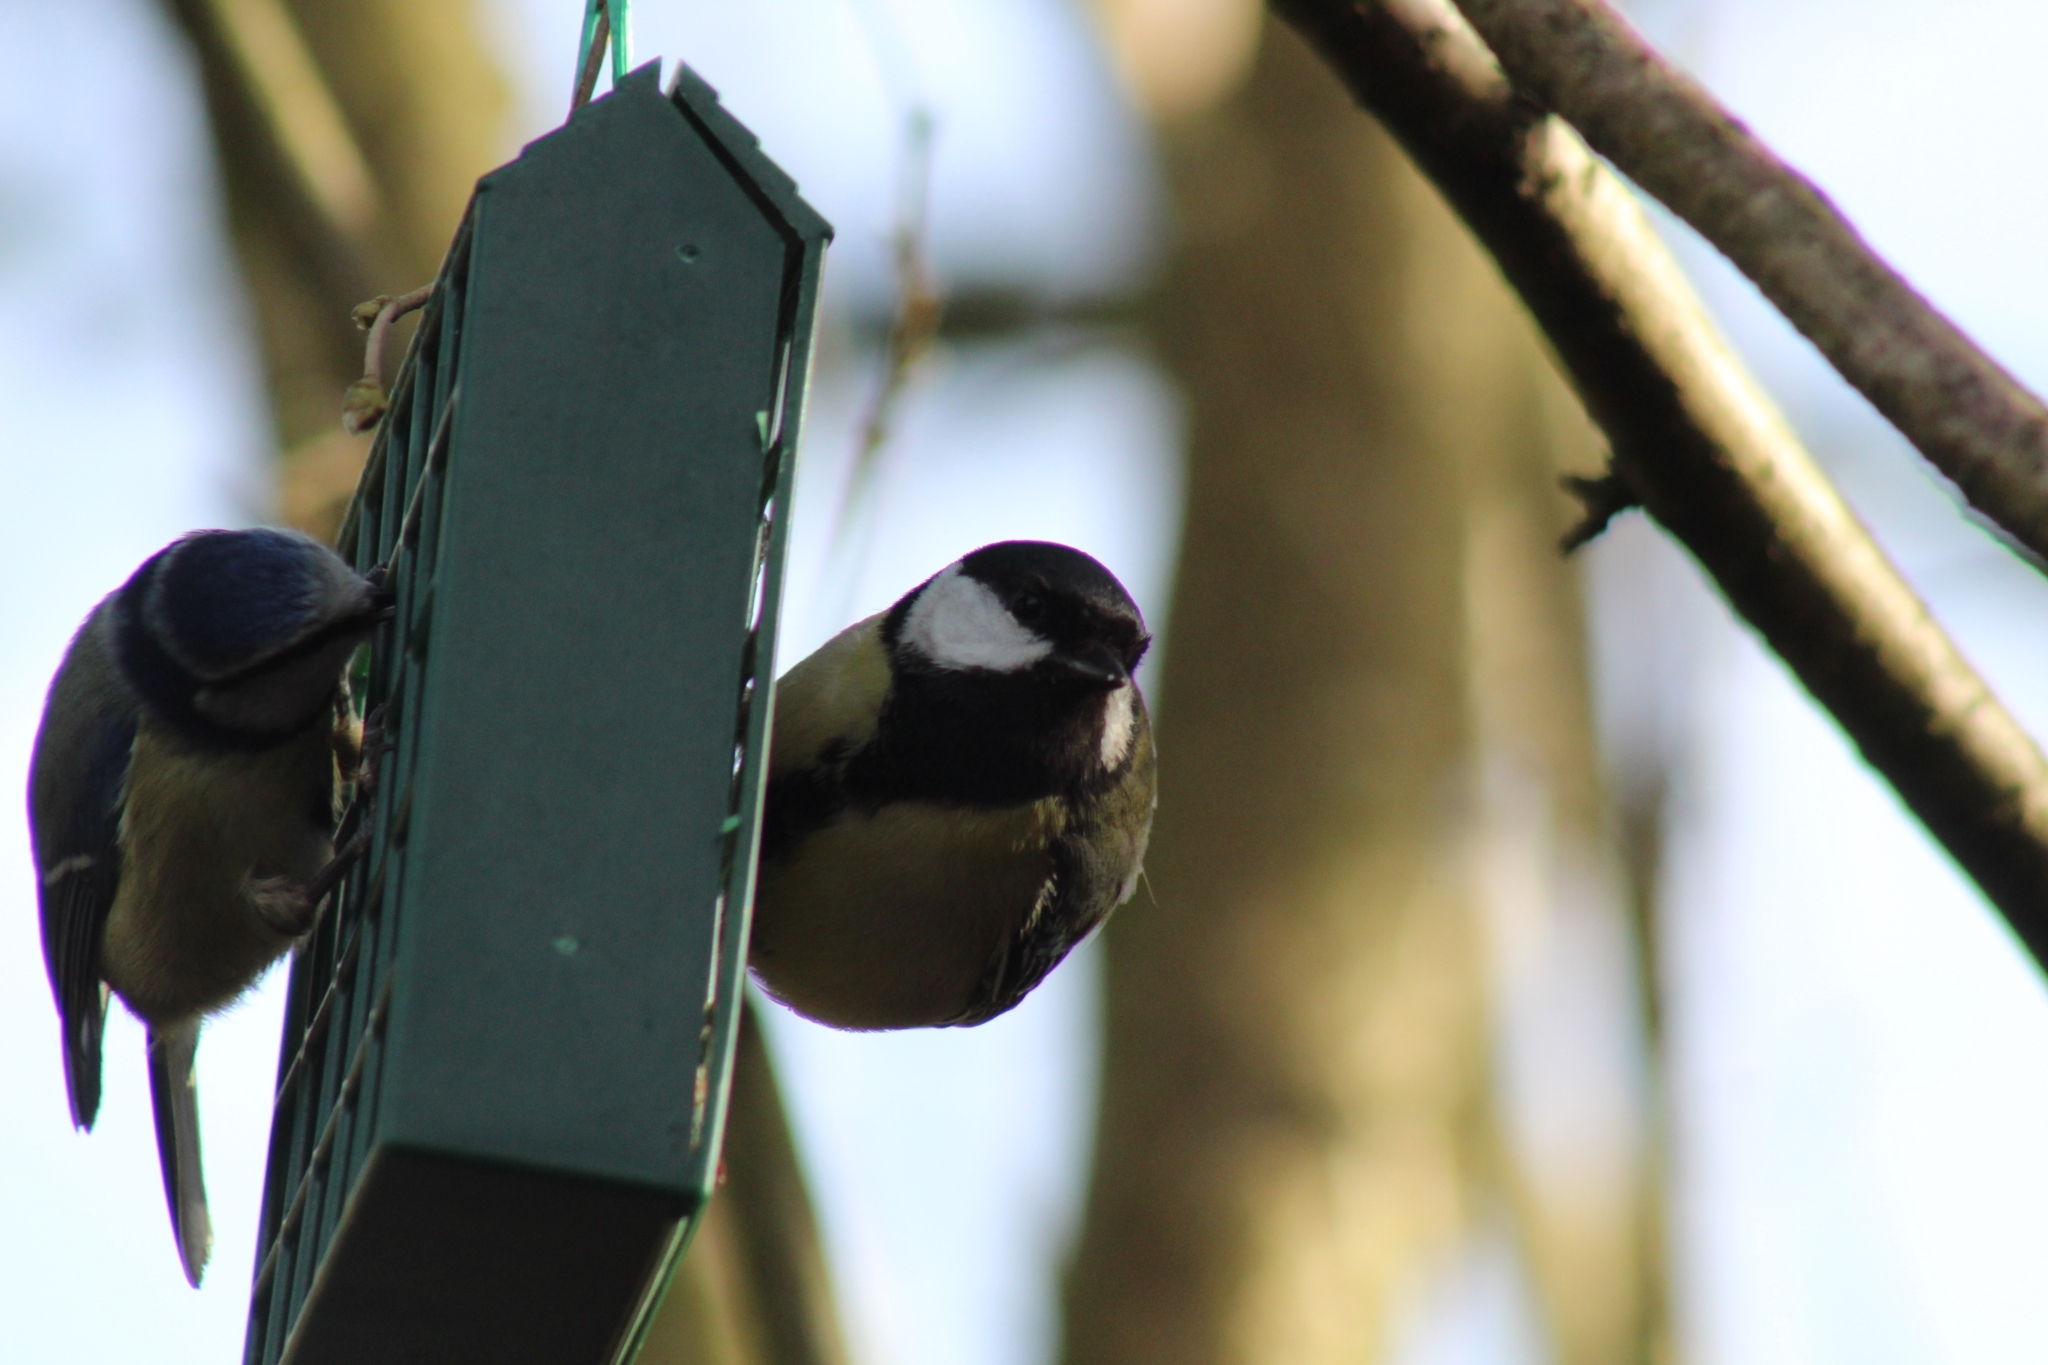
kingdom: Animalia
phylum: Chordata
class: Aves
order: Passeriformes
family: Paridae
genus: Parus
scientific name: Parus major
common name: Great tit
